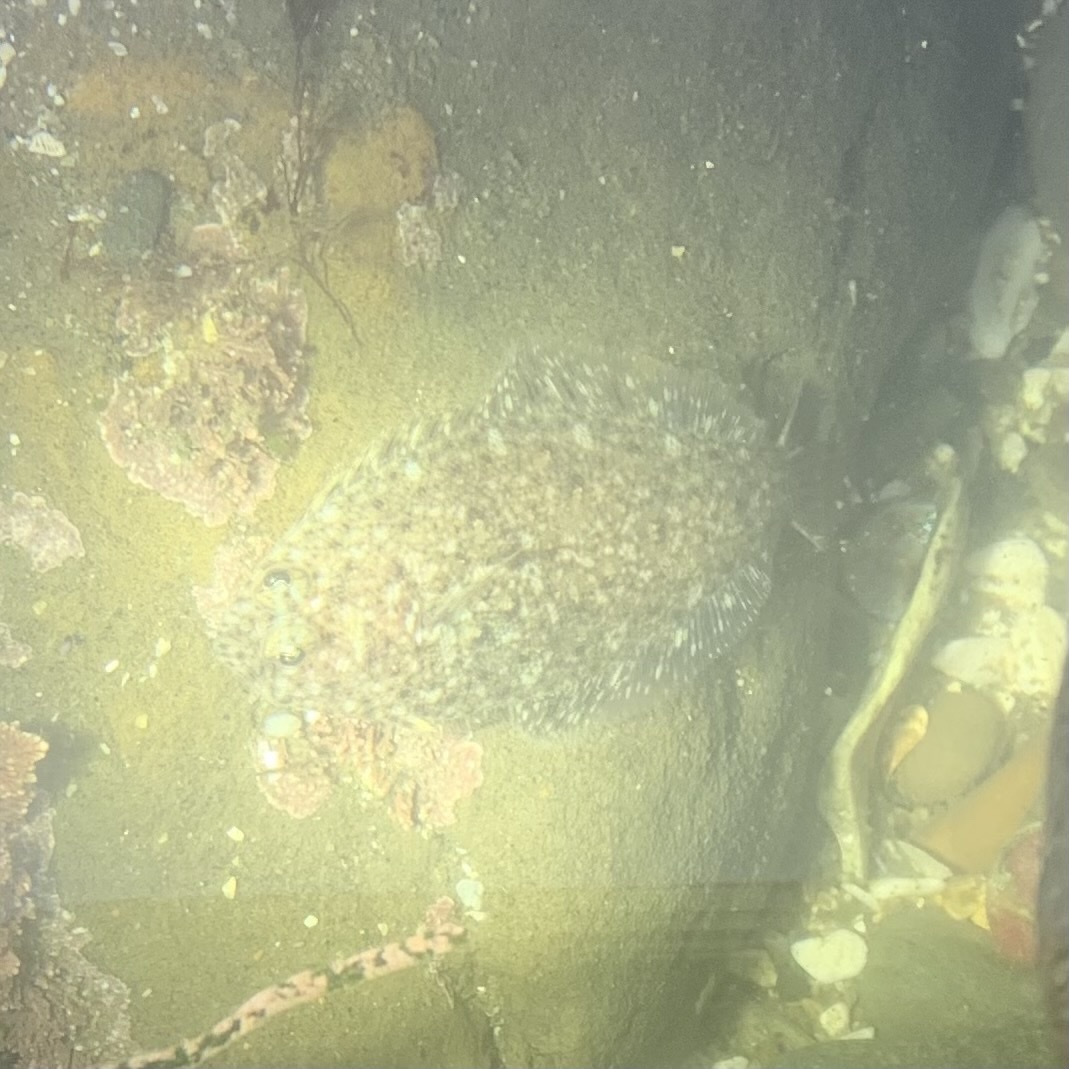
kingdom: Animalia
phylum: Chordata
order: Pleuronectiformes
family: Paralichthyidae
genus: Citharichthys
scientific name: Citharichthys stigmaeus
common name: Speckled sanddab
